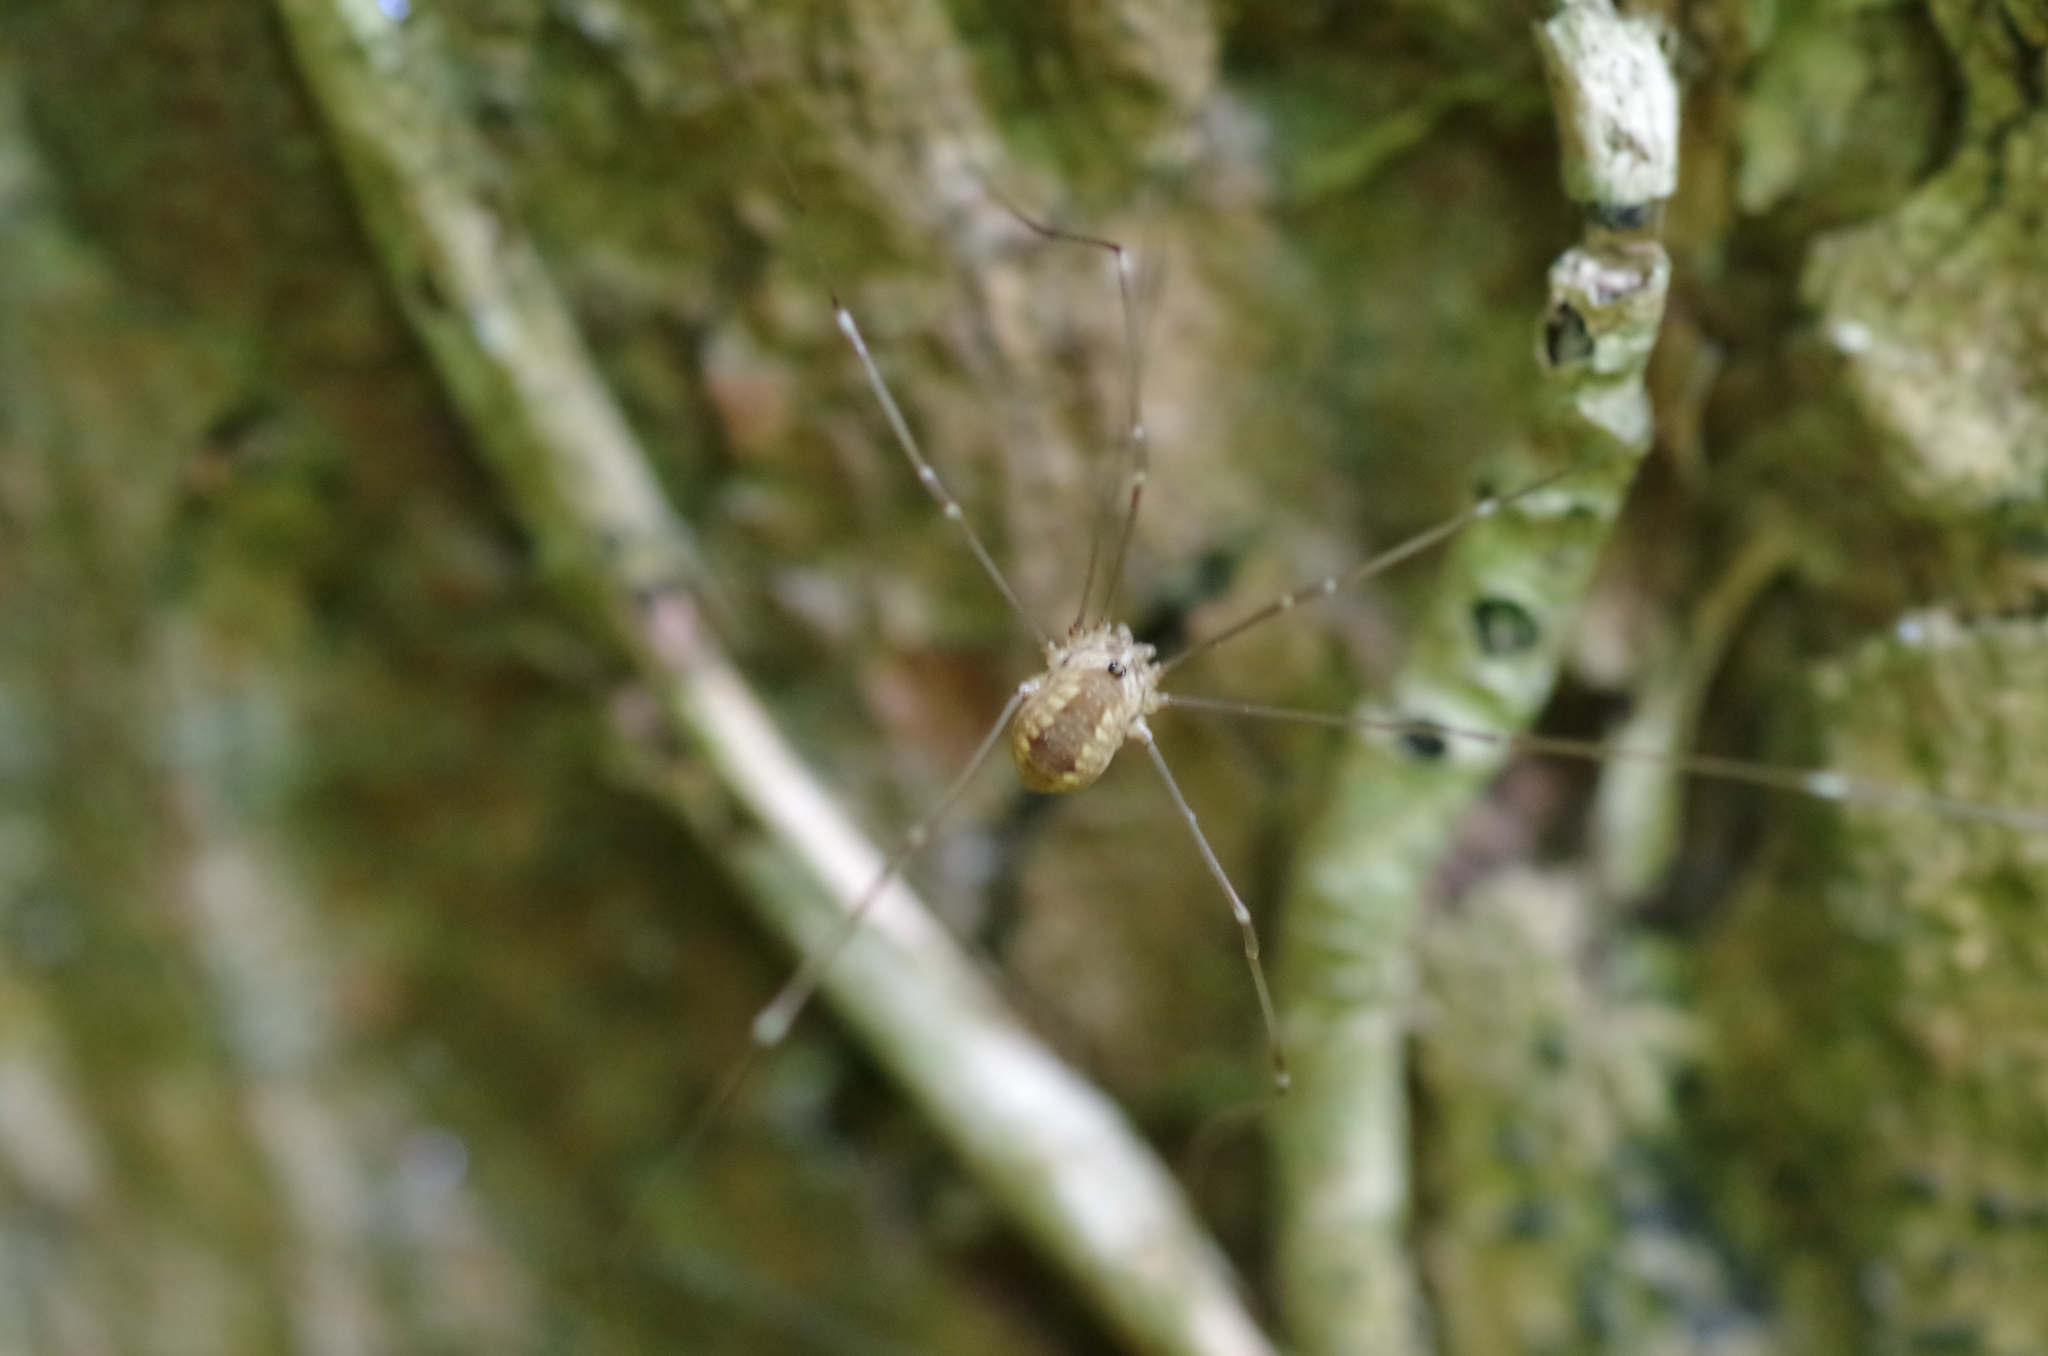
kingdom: Animalia
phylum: Arthropoda
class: Arachnida
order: Opiliones
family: Sclerosomatidae
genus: Leiobunum
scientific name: Leiobunum rotundum
